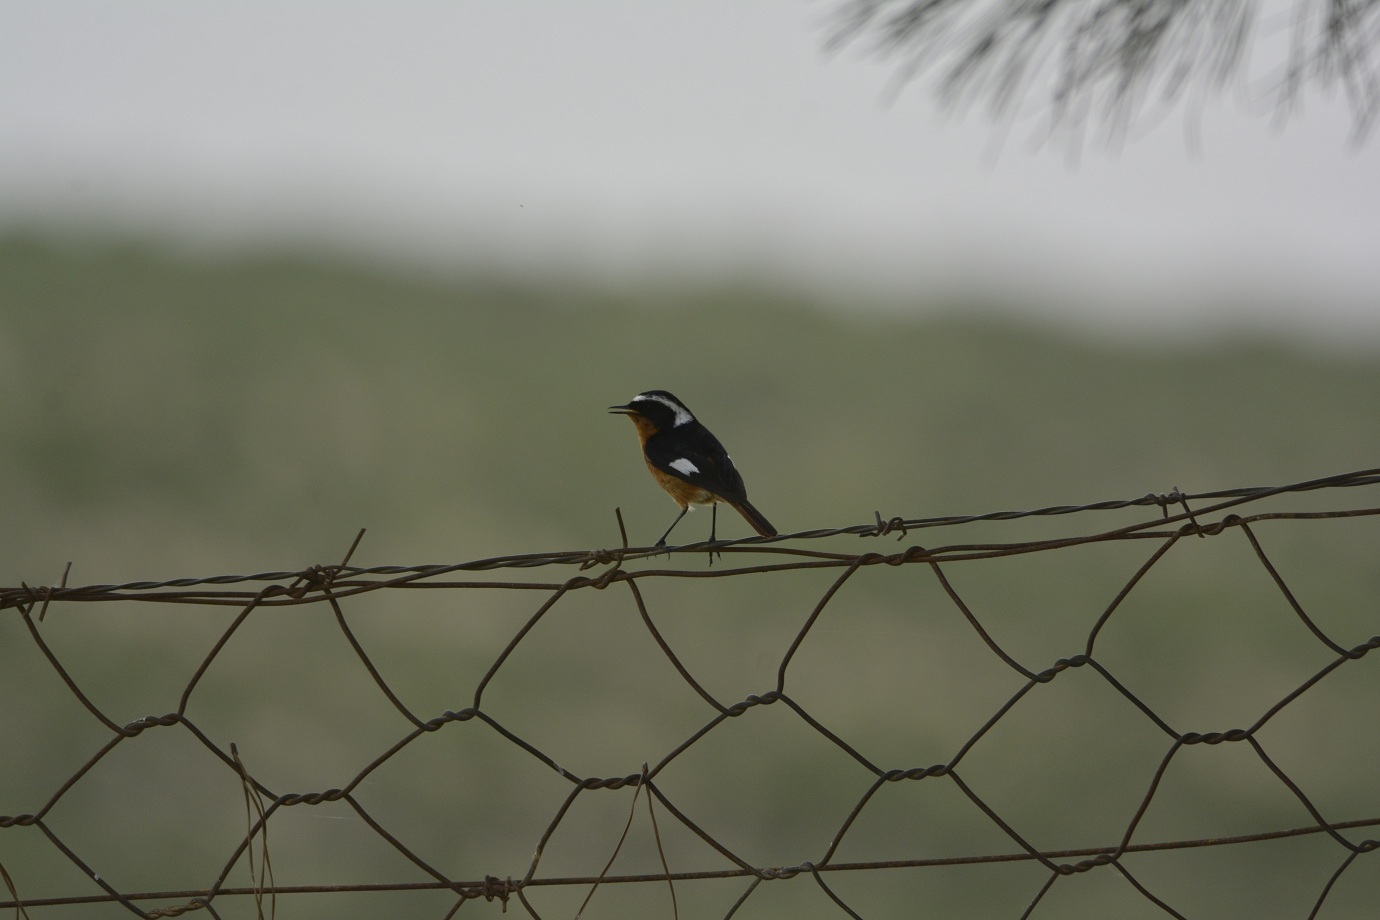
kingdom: Animalia
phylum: Chordata
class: Aves
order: Passeriformes
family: Muscicapidae
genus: Phoenicurus
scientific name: Phoenicurus moussieri
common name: Moussier's redstart
